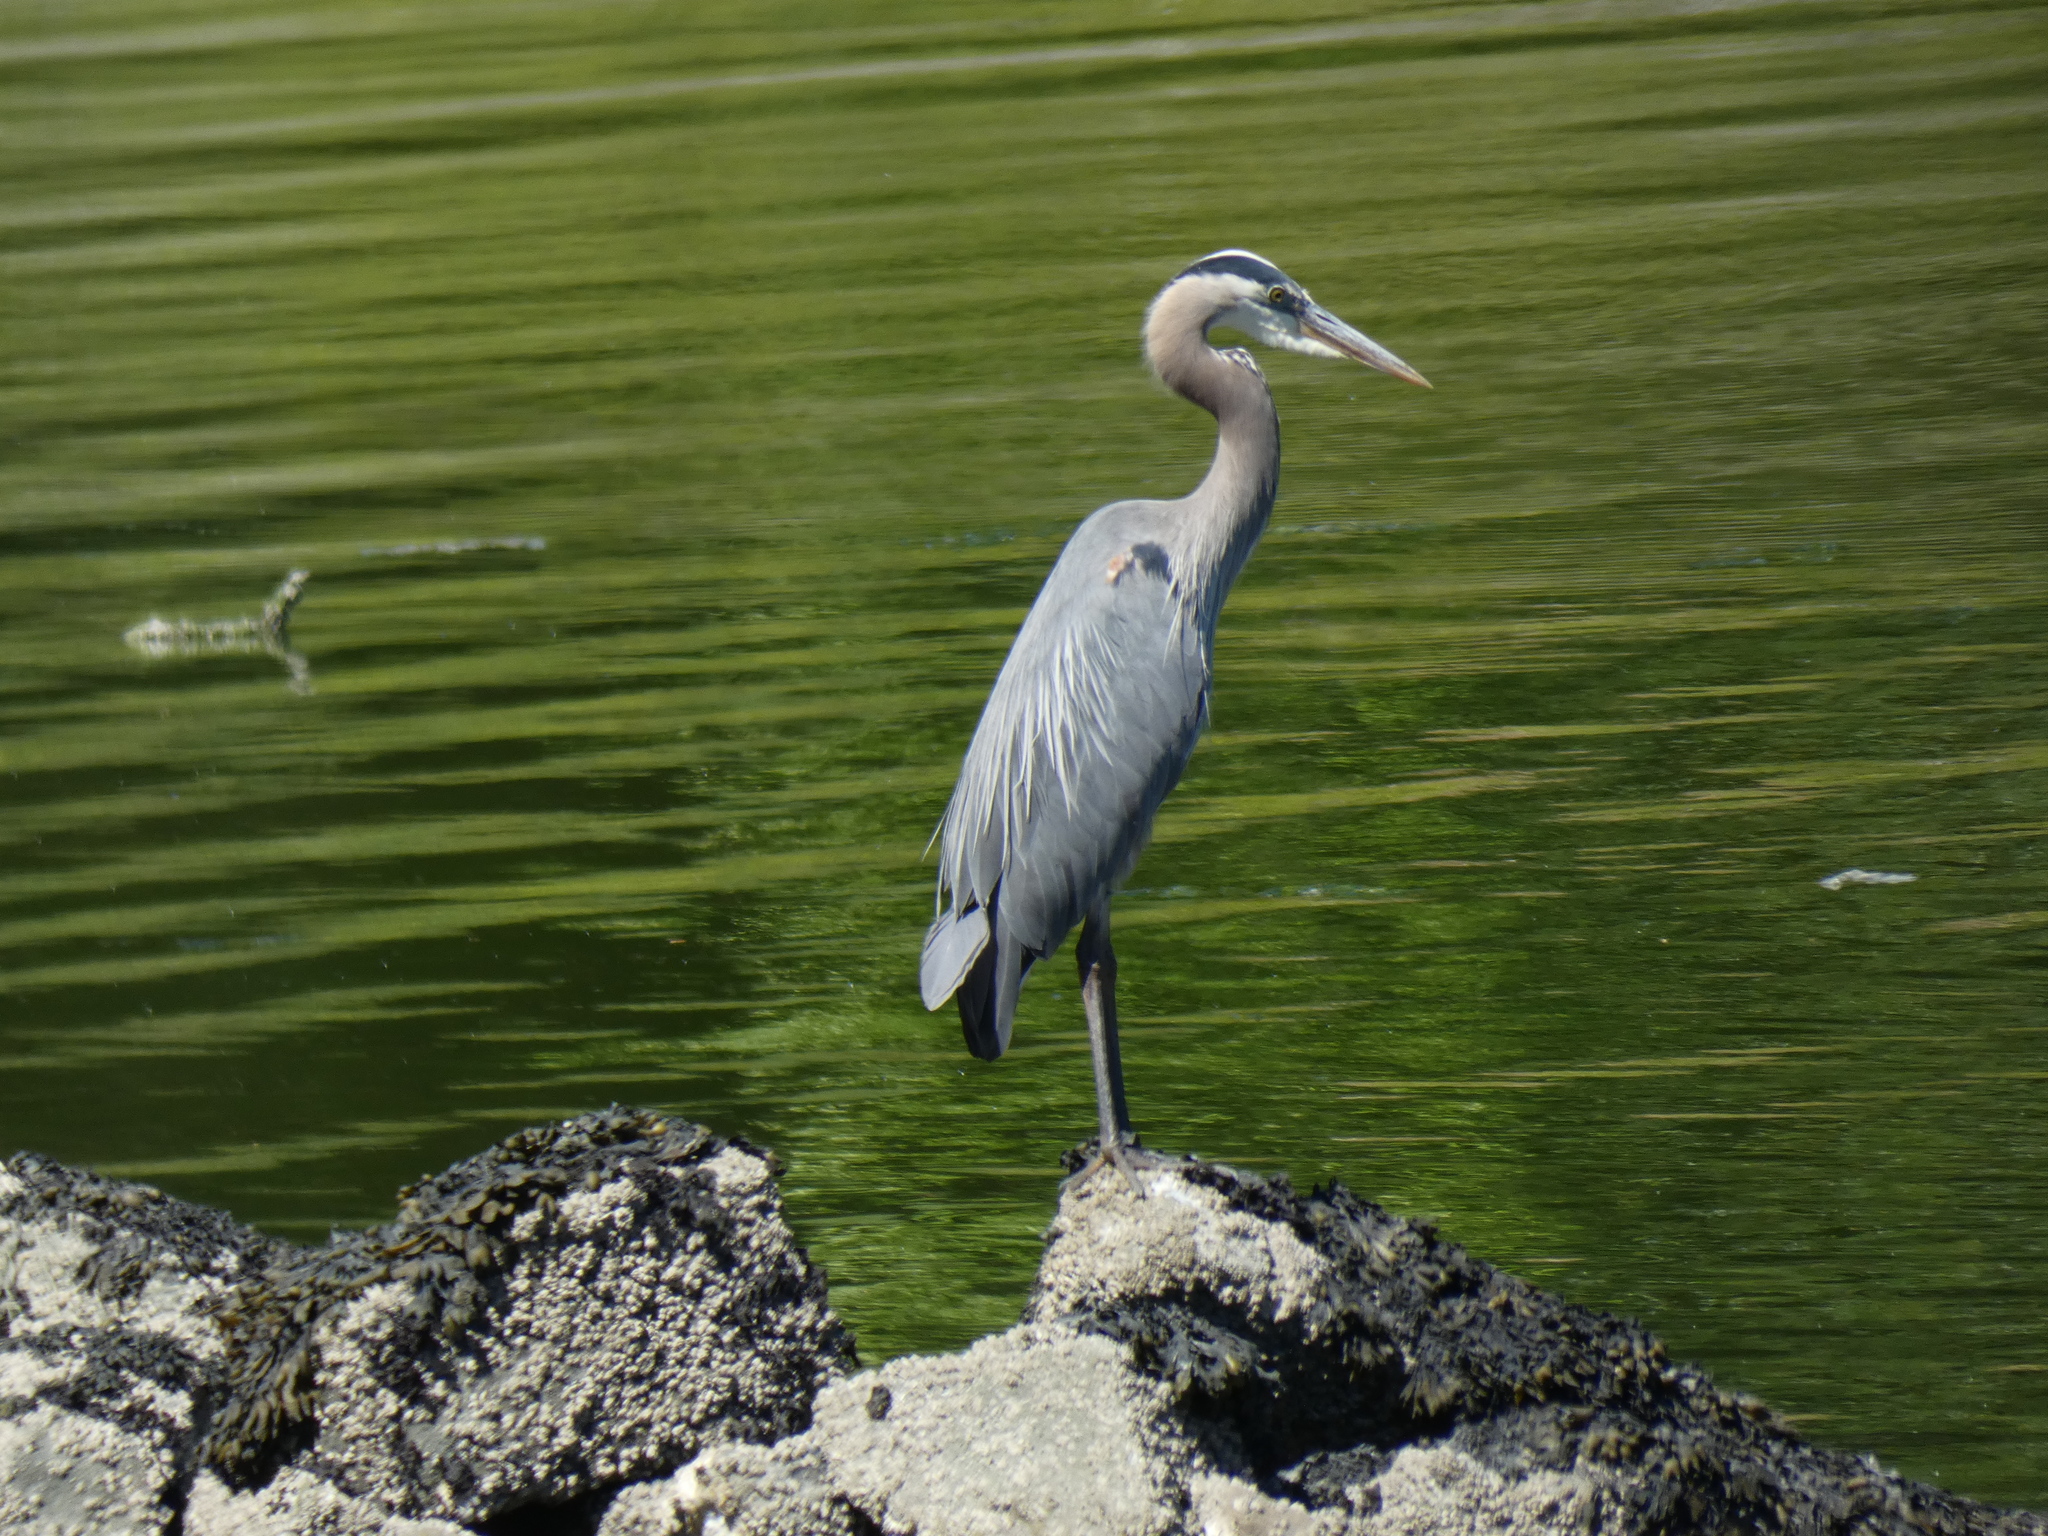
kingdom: Animalia
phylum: Chordata
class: Aves
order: Pelecaniformes
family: Ardeidae
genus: Ardea
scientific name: Ardea herodias
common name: Great blue heron
